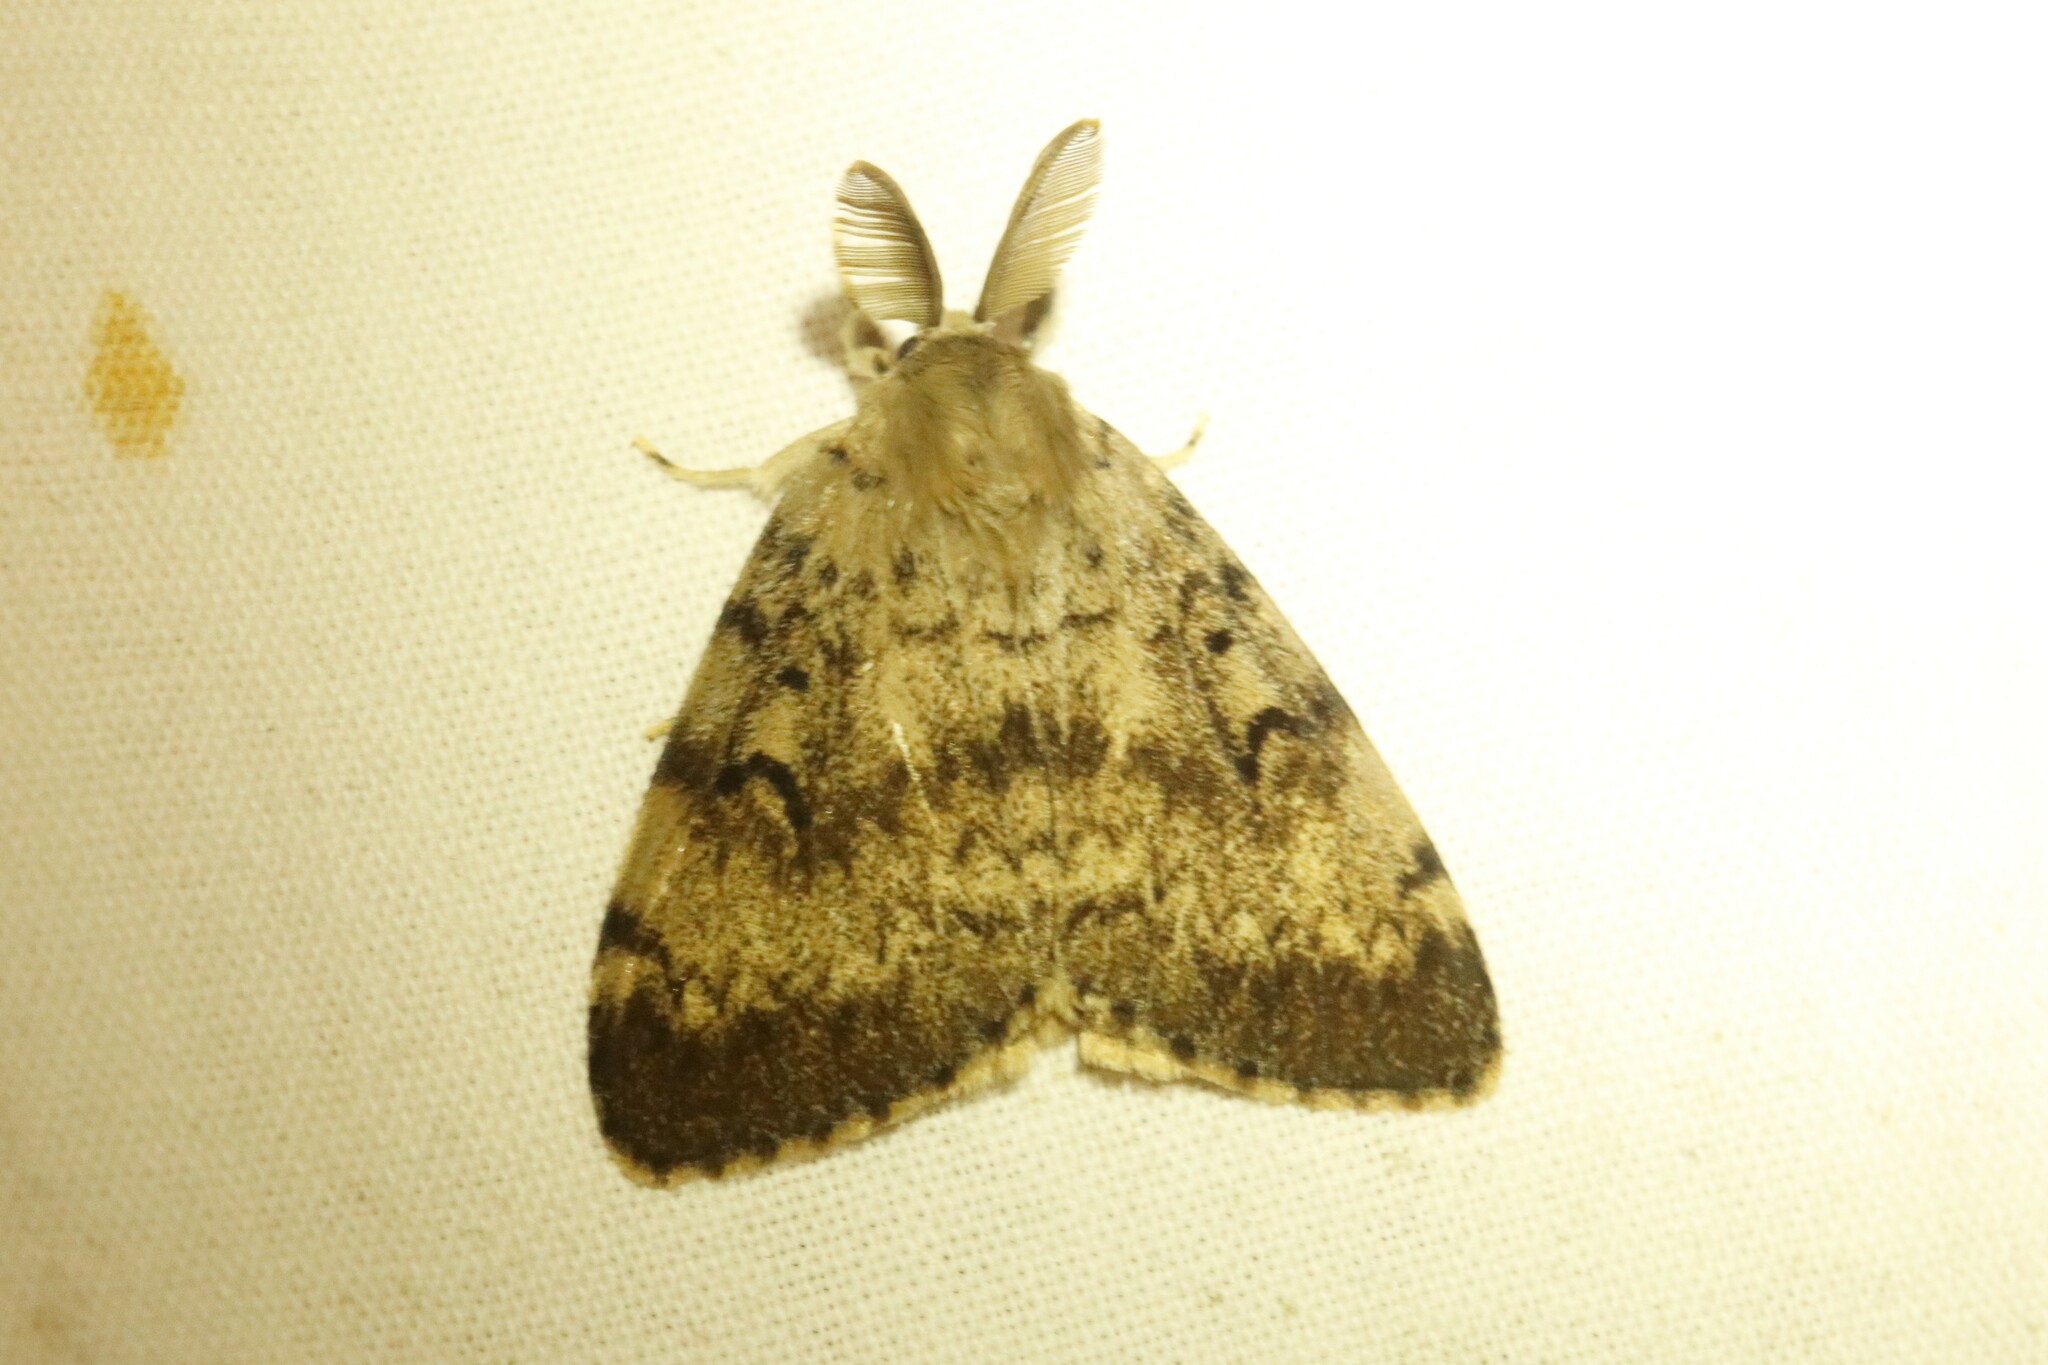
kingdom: Animalia
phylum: Arthropoda
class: Insecta
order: Lepidoptera
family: Erebidae
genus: Lymantria
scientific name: Lymantria dispar
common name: Gypsy moth
